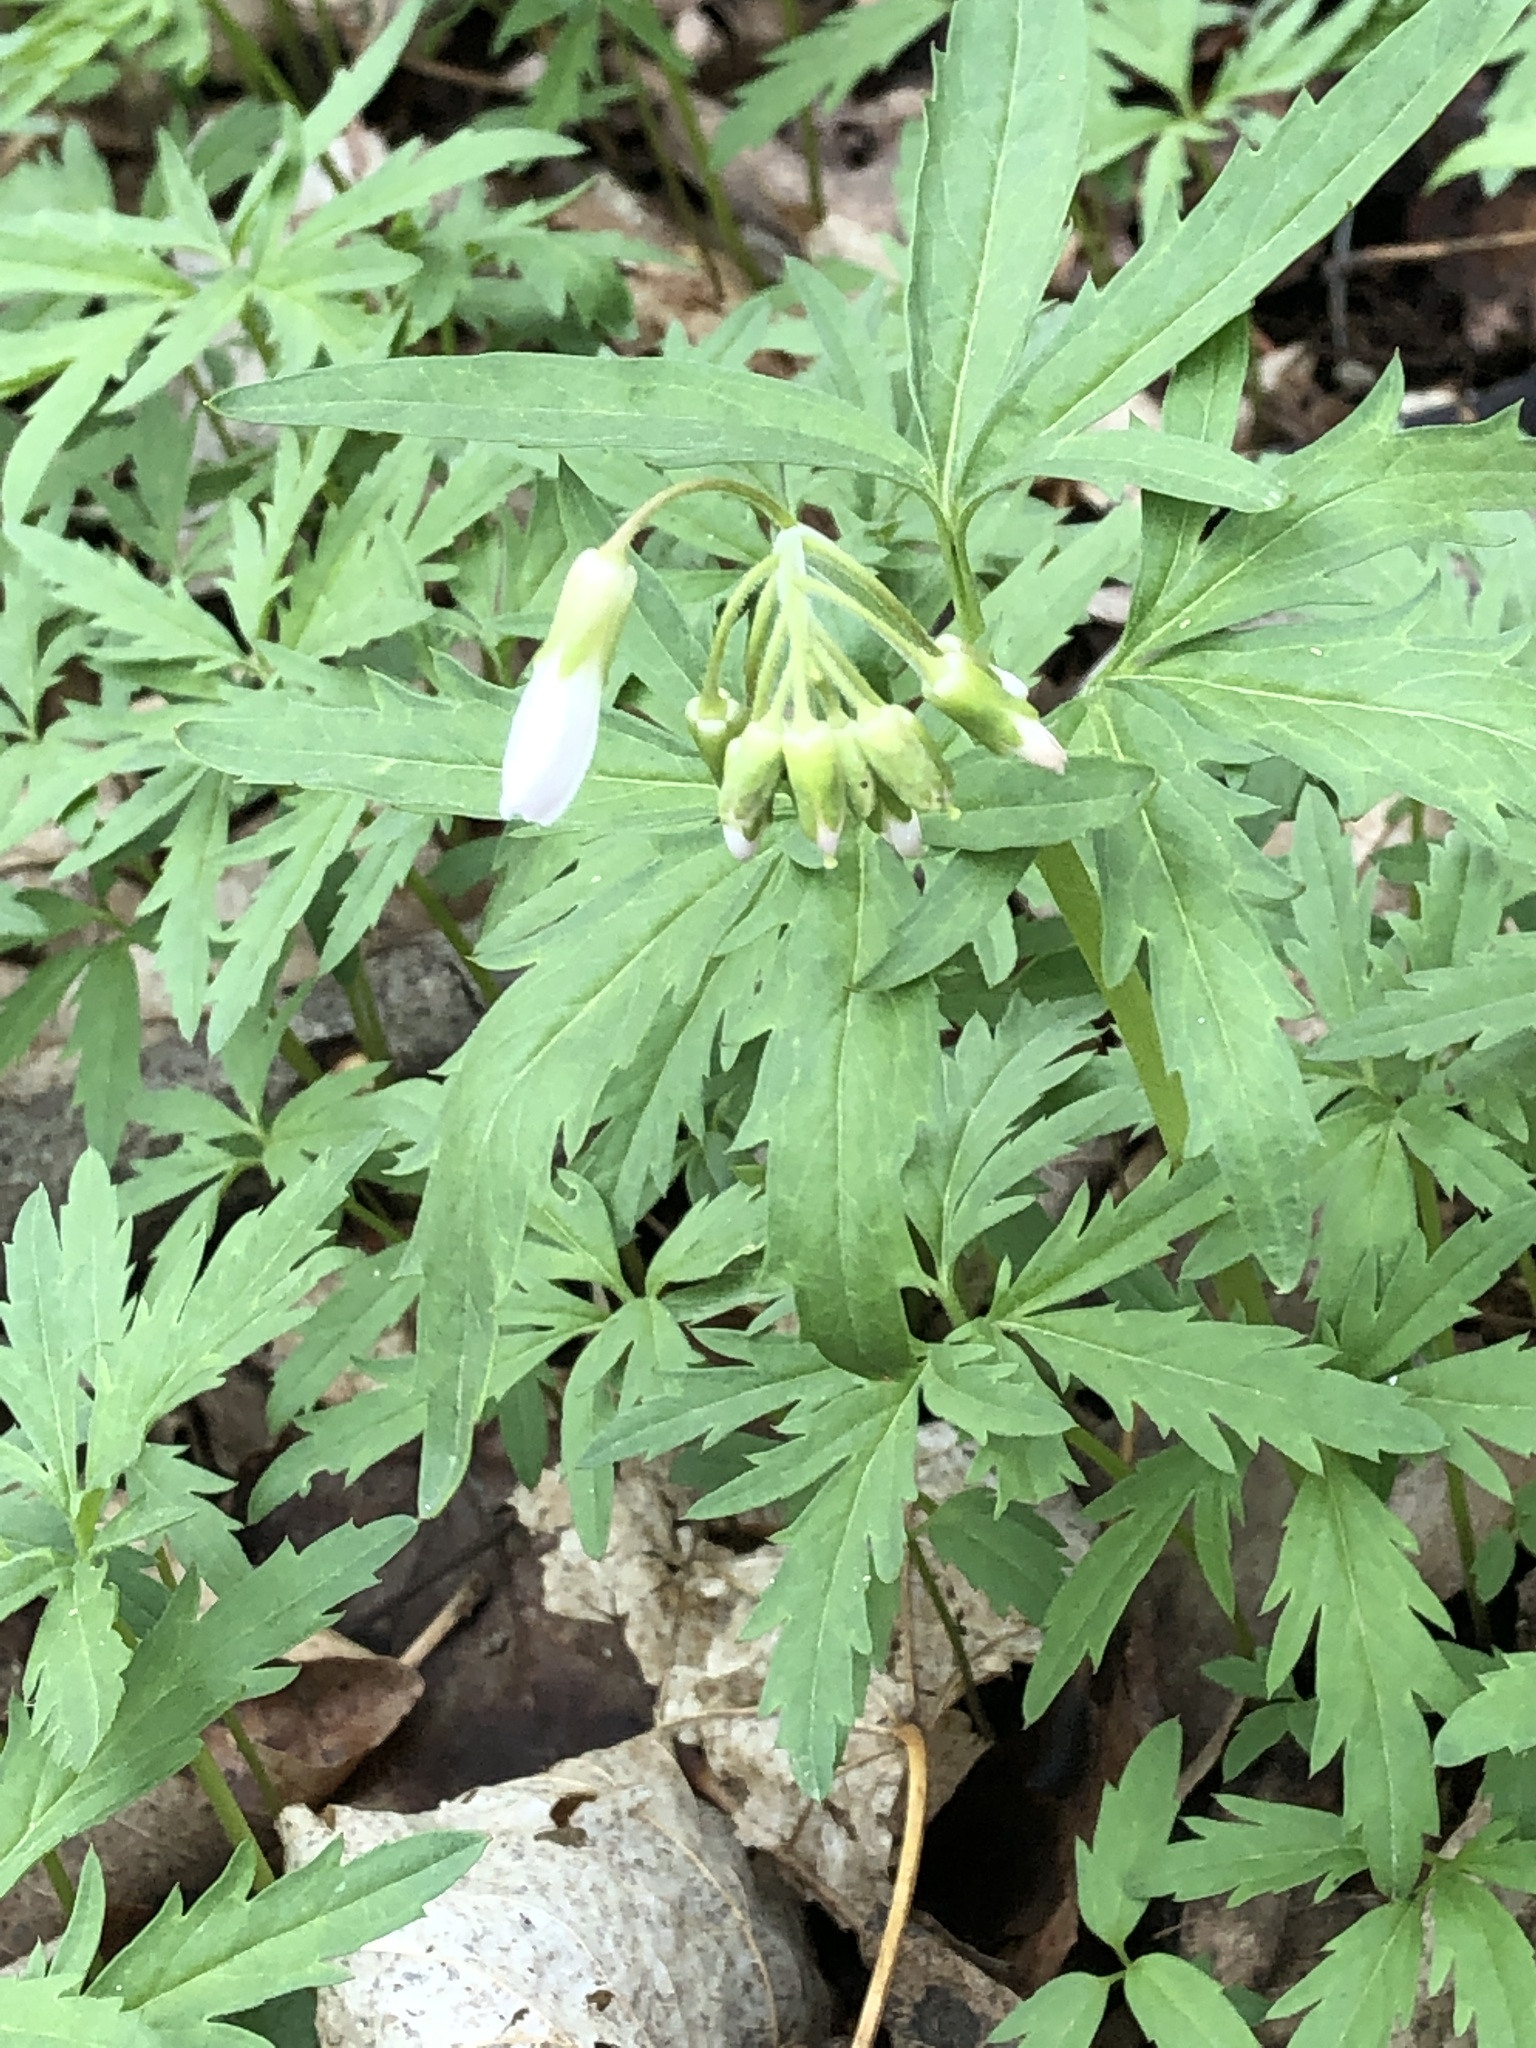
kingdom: Plantae
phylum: Tracheophyta
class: Magnoliopsida
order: Brassicales
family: Brassicaceae
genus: Cardamine
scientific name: Cardamine concatenata
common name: Cut-leaf toothcup
